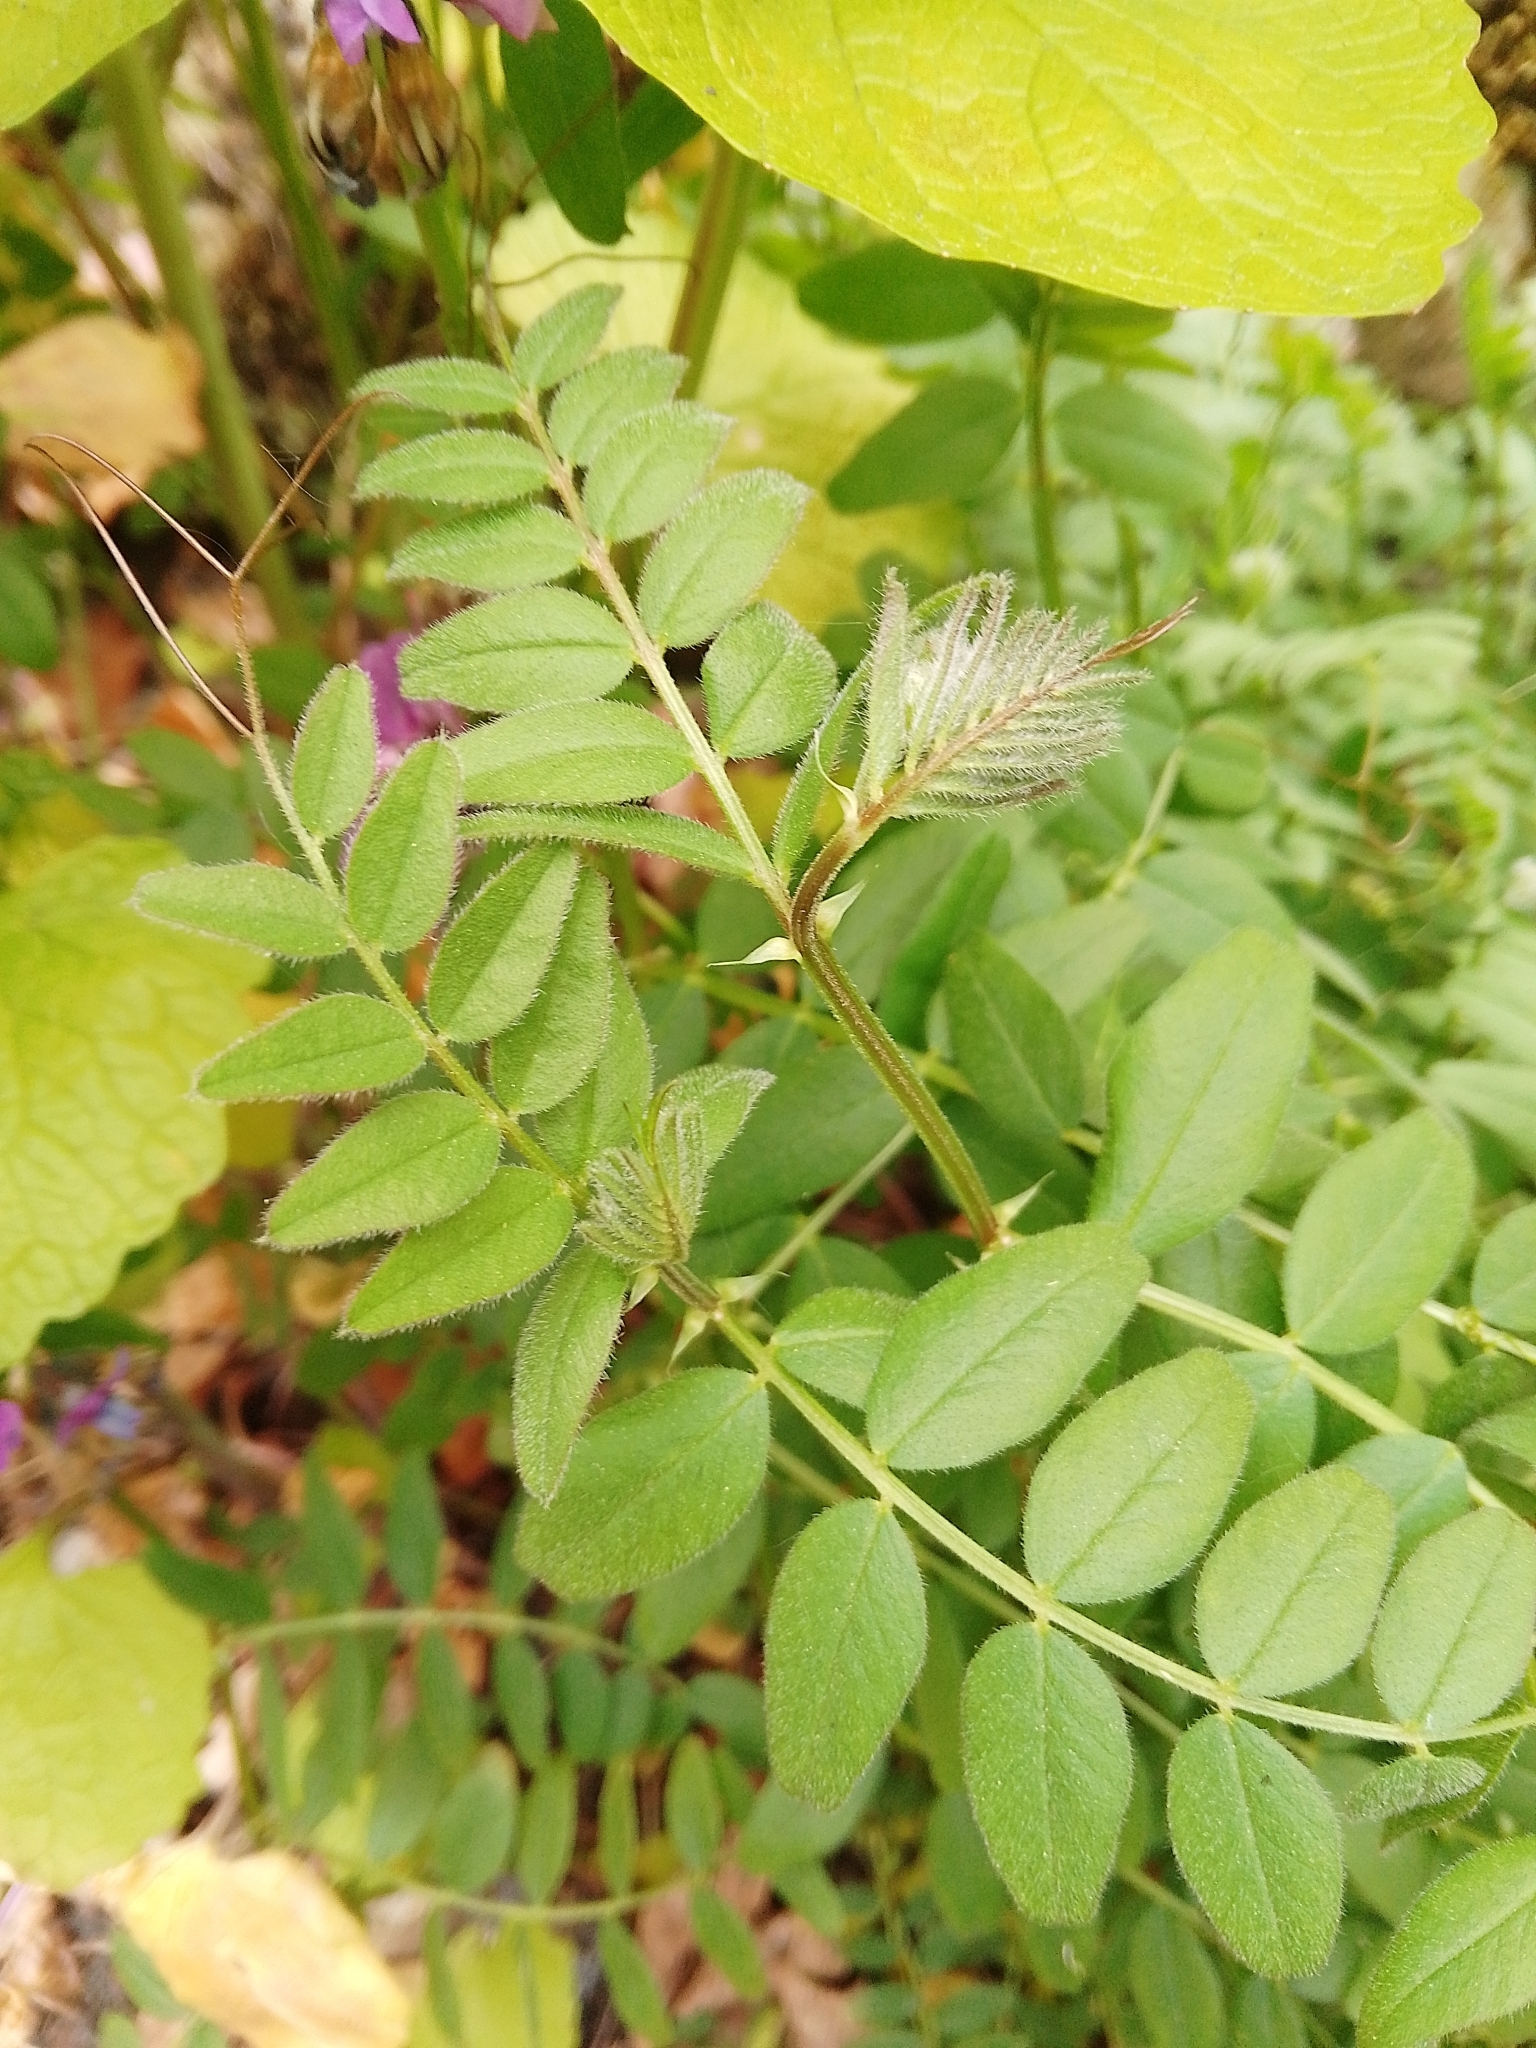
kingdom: Plantae
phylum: Tracheophyta
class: Magnoliopsida
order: Fabales
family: Fabaceae
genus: Vicia
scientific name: Vicia sepium
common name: Bush vetch
